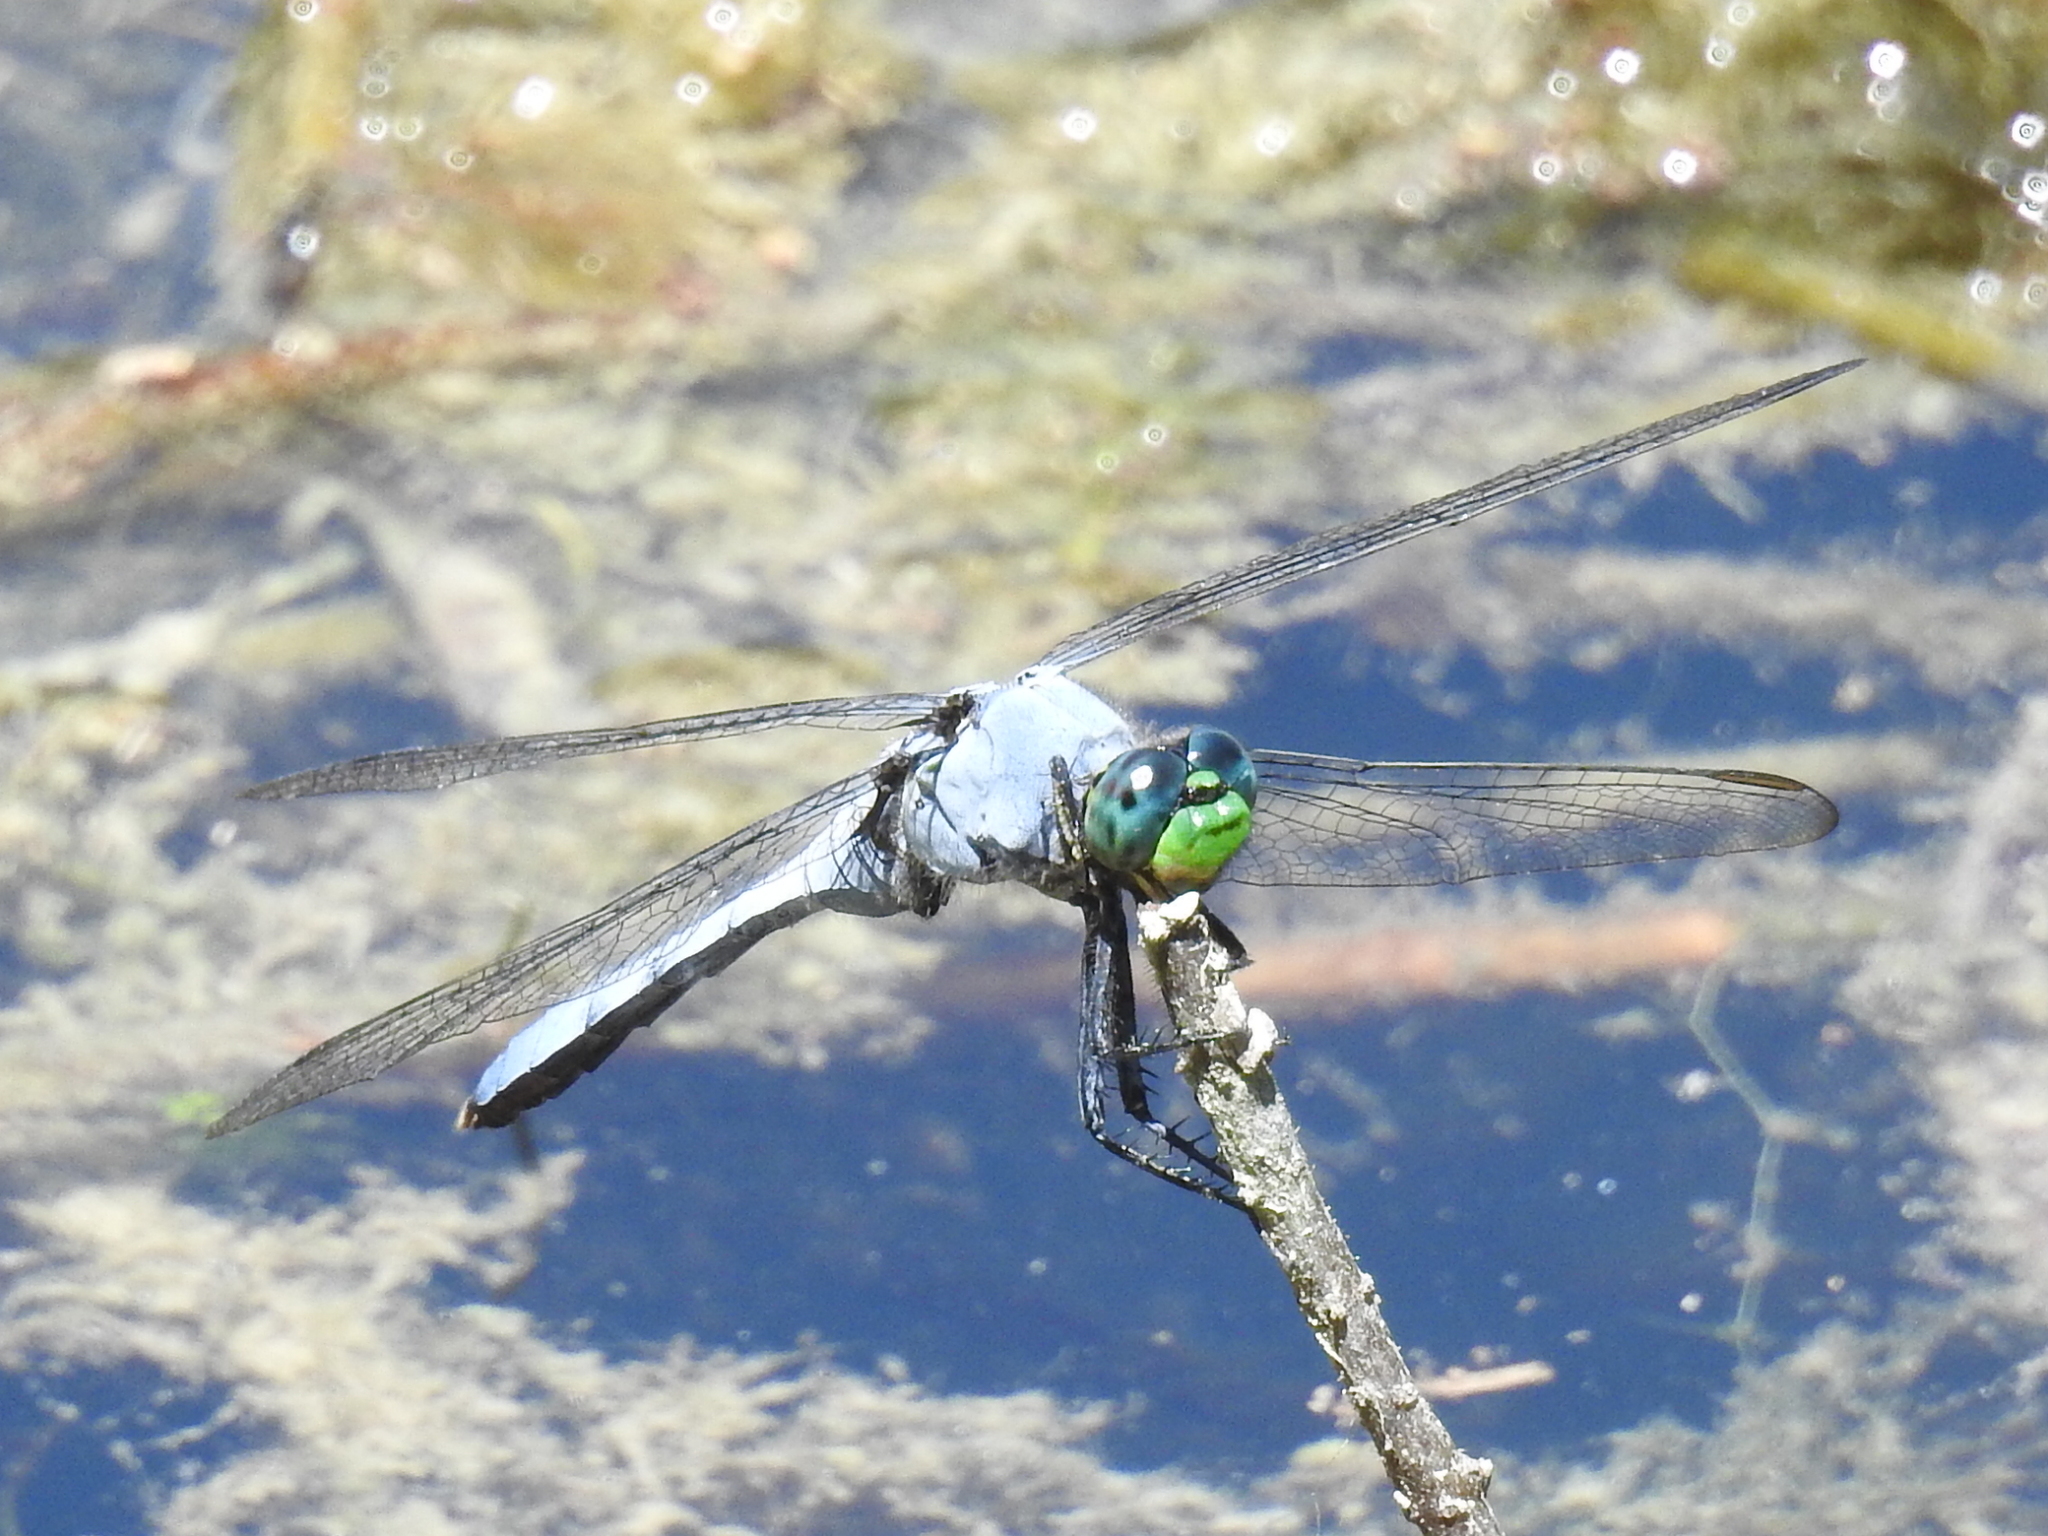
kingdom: Animalia
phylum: Arthropoda
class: Insecta
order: Odonata
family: Libellulidae
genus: Erythemis
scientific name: Erythemis simplicicollis
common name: Eastern pondhawk
